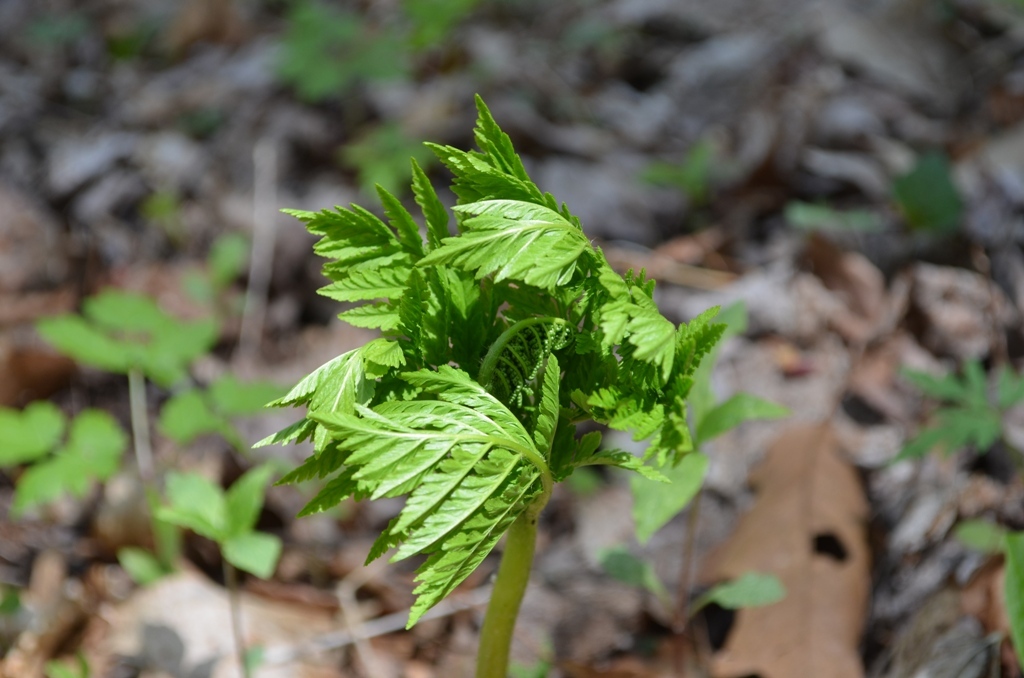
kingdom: Plantae
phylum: Tracheophyta
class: Polypodiopsida
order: Ophioglossales
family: Ophioglossaceae
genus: Botrypus
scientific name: Botrypus virginianus
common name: Common grapefern
